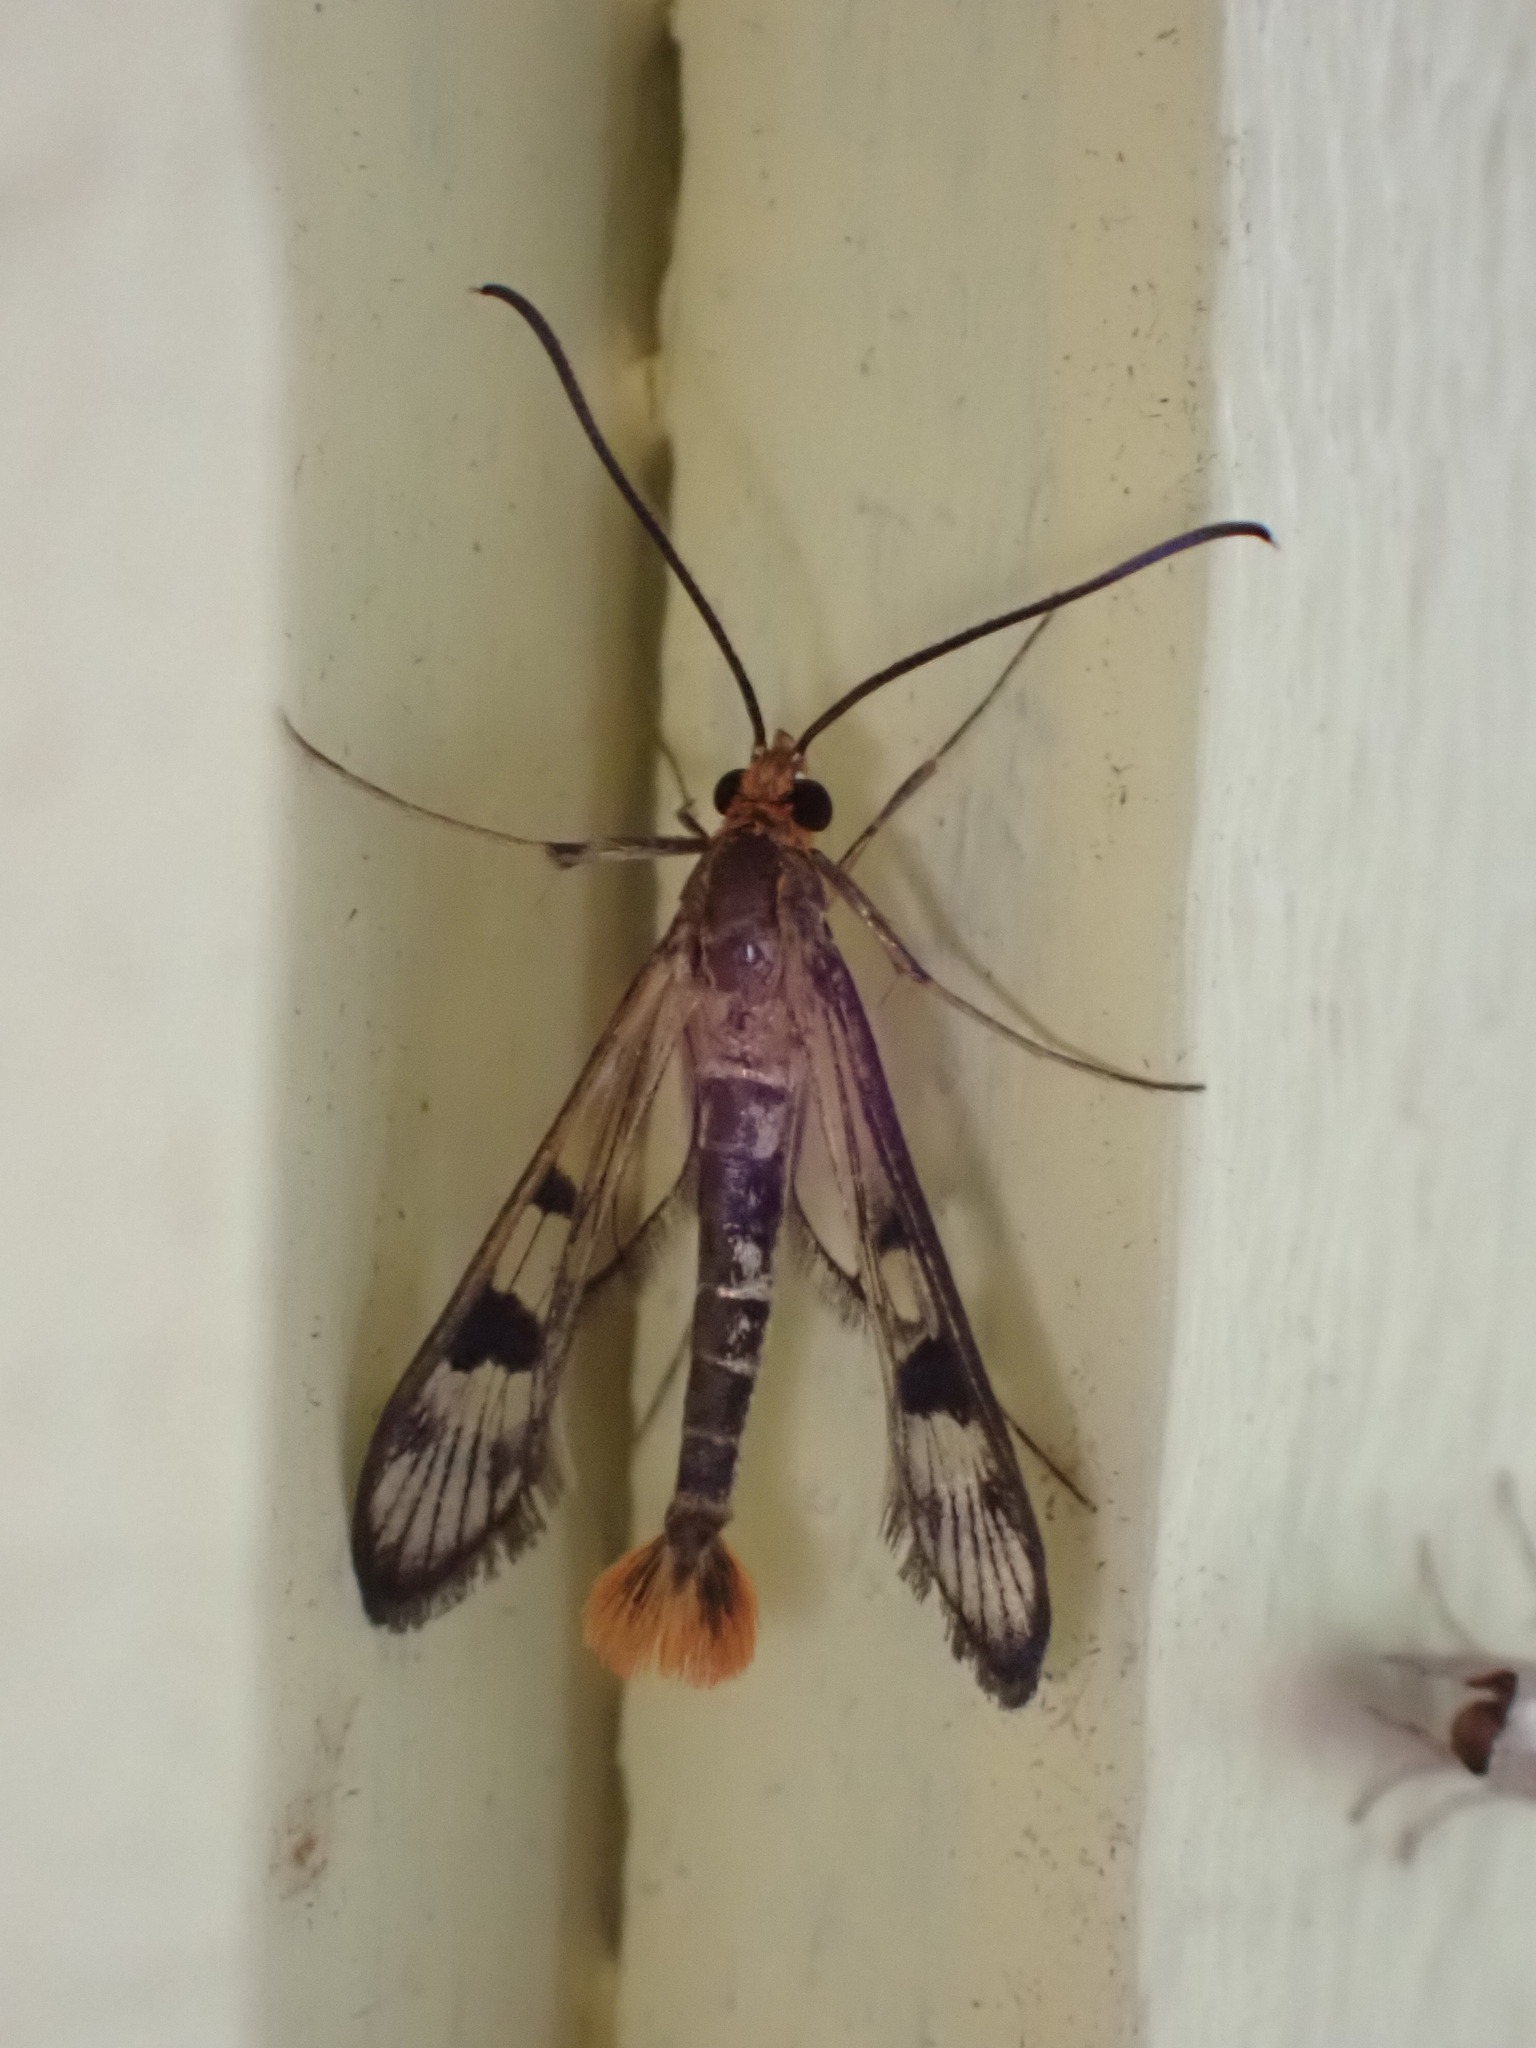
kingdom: Animalia
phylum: Arthropoda
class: Insecta
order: Lepidoptera
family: Sesiidae
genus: Synanthedon
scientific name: Synanthedon acerni
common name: Maple callus borer moth
